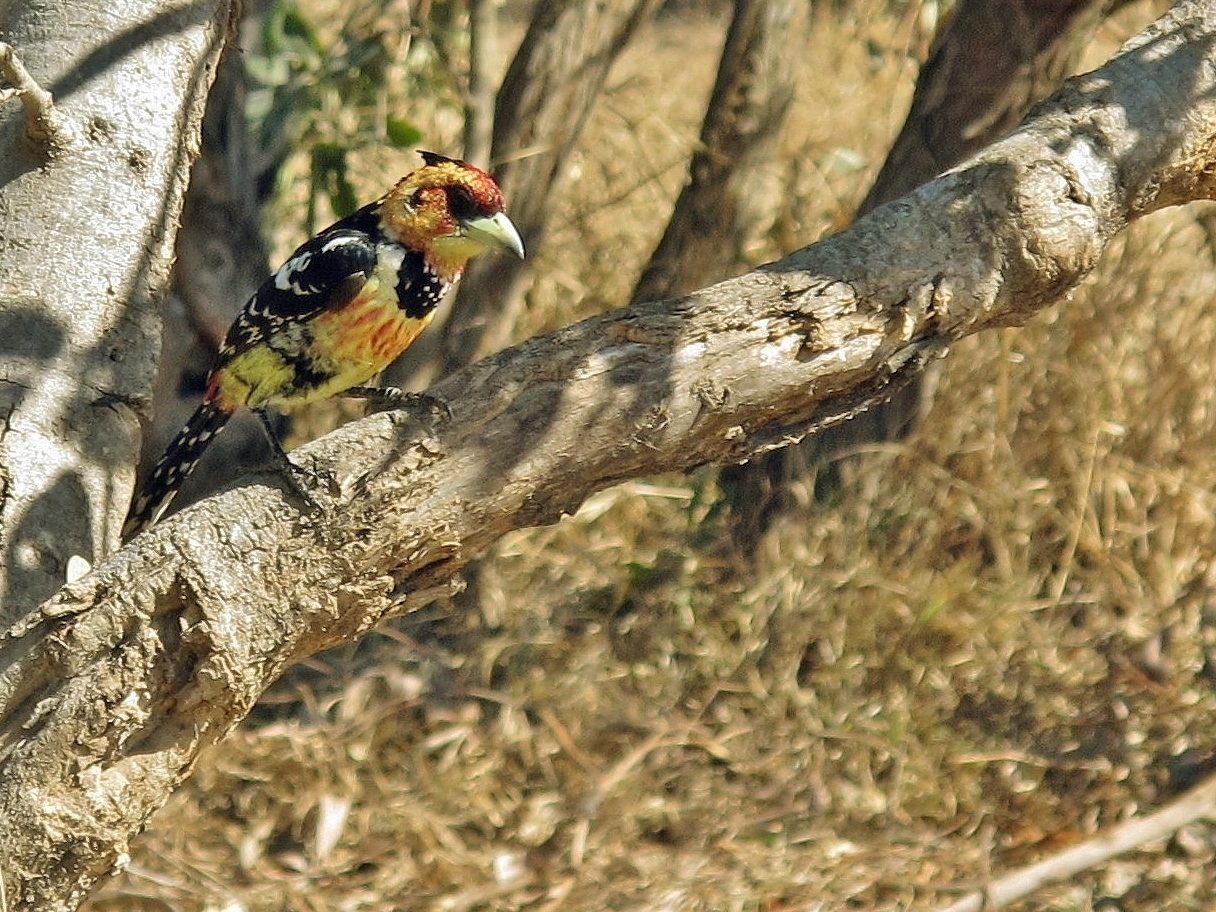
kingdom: Animalia
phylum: Chordata
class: Aves
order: Piciformes
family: Lybiidae
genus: Trachyphonus
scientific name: Trachyphonus vaillantii
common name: Crested barbet
